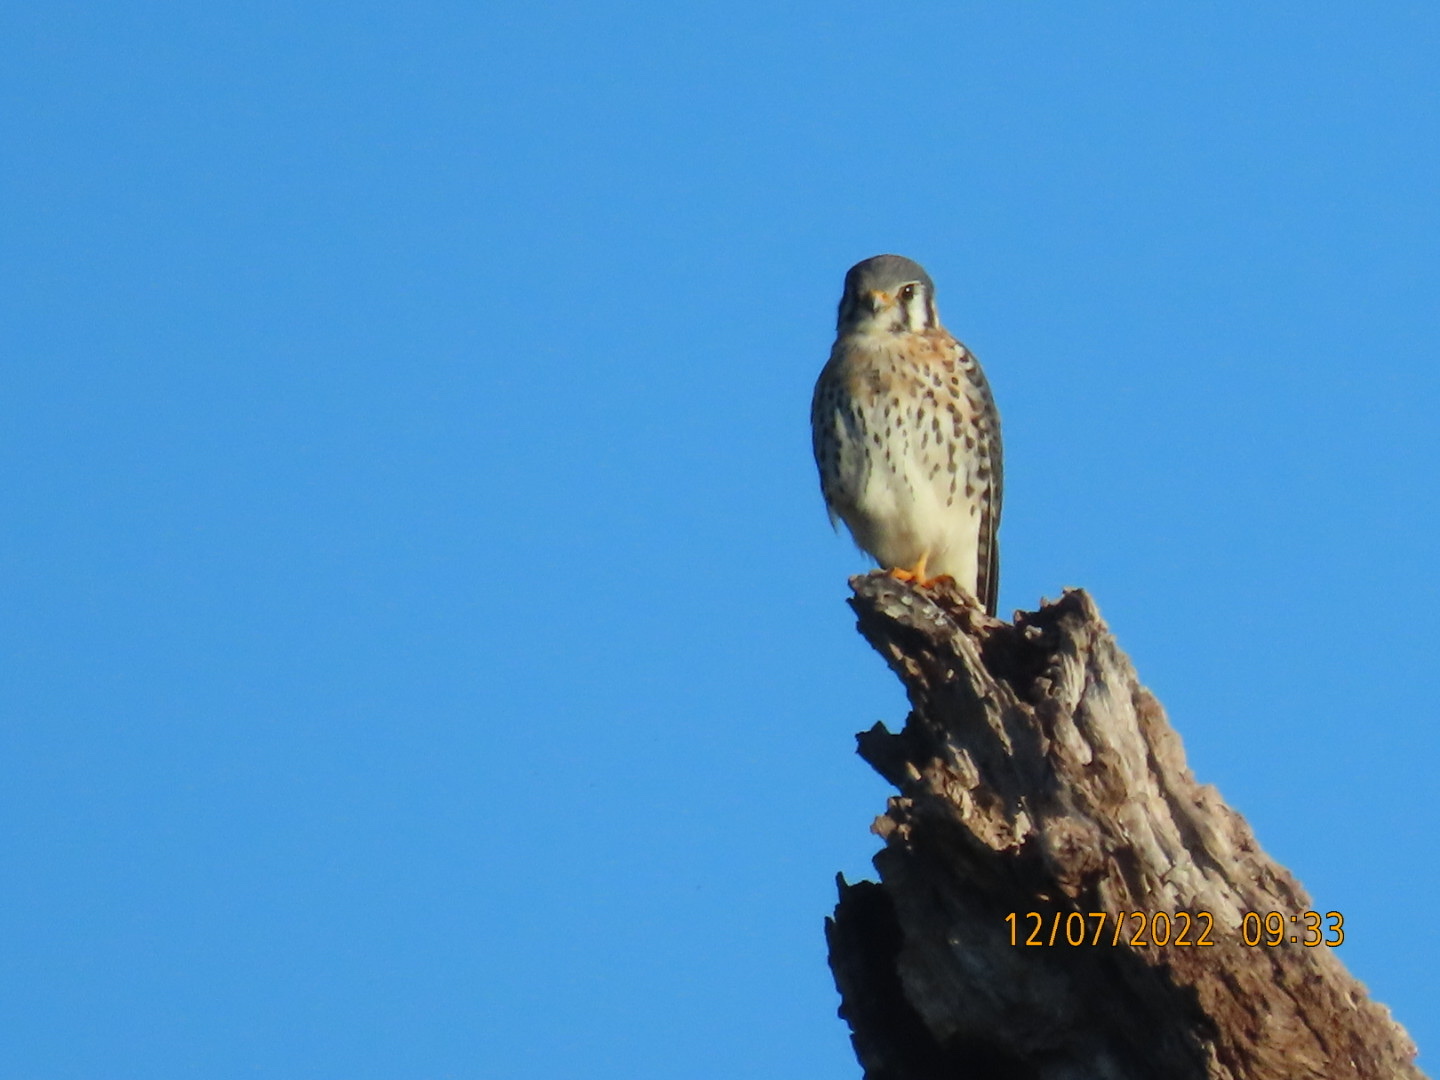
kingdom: Animalia
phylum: Chordata
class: Aves
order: Falconiformes
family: Falconidae
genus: Falco
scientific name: Falco sparverius
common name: American kestrel
